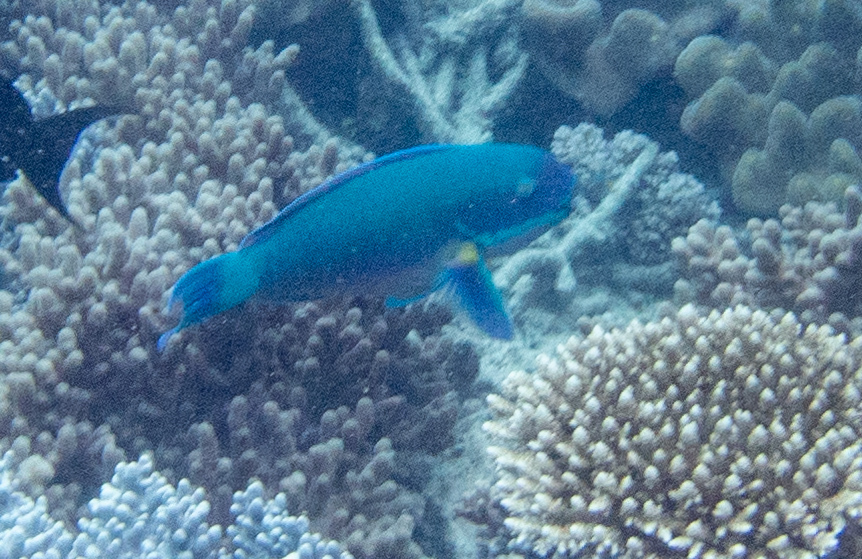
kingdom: Animalia
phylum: Chordata
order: Perciformes
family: Scaridae
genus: Chlorurus
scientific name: Chlorurus microrhinos
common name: Steephead parrotfish
